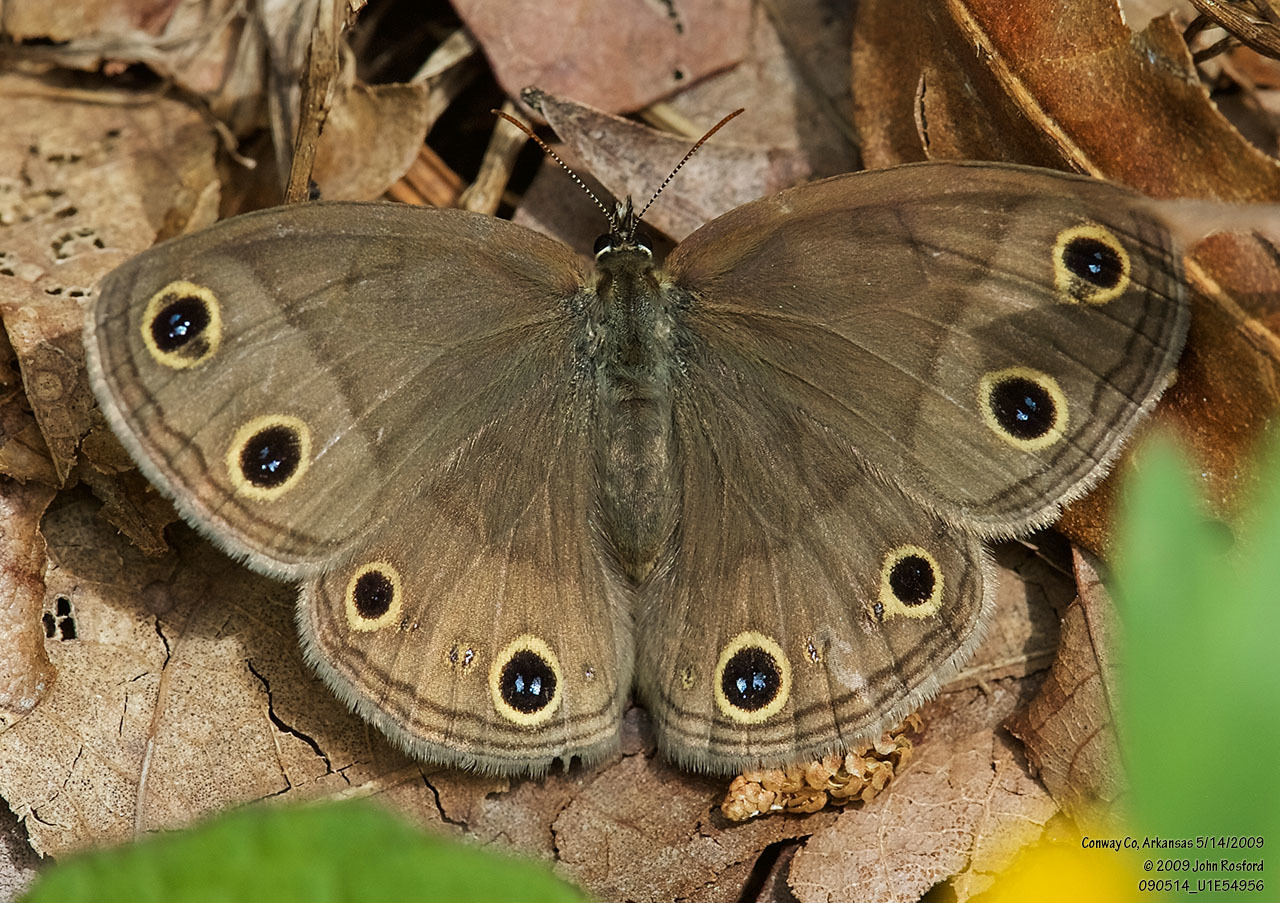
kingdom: Animalia
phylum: Arthropoda
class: Insecta
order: Lepidoptera
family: Nymphalidae
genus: Euptychia
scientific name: Euptychia cymela
